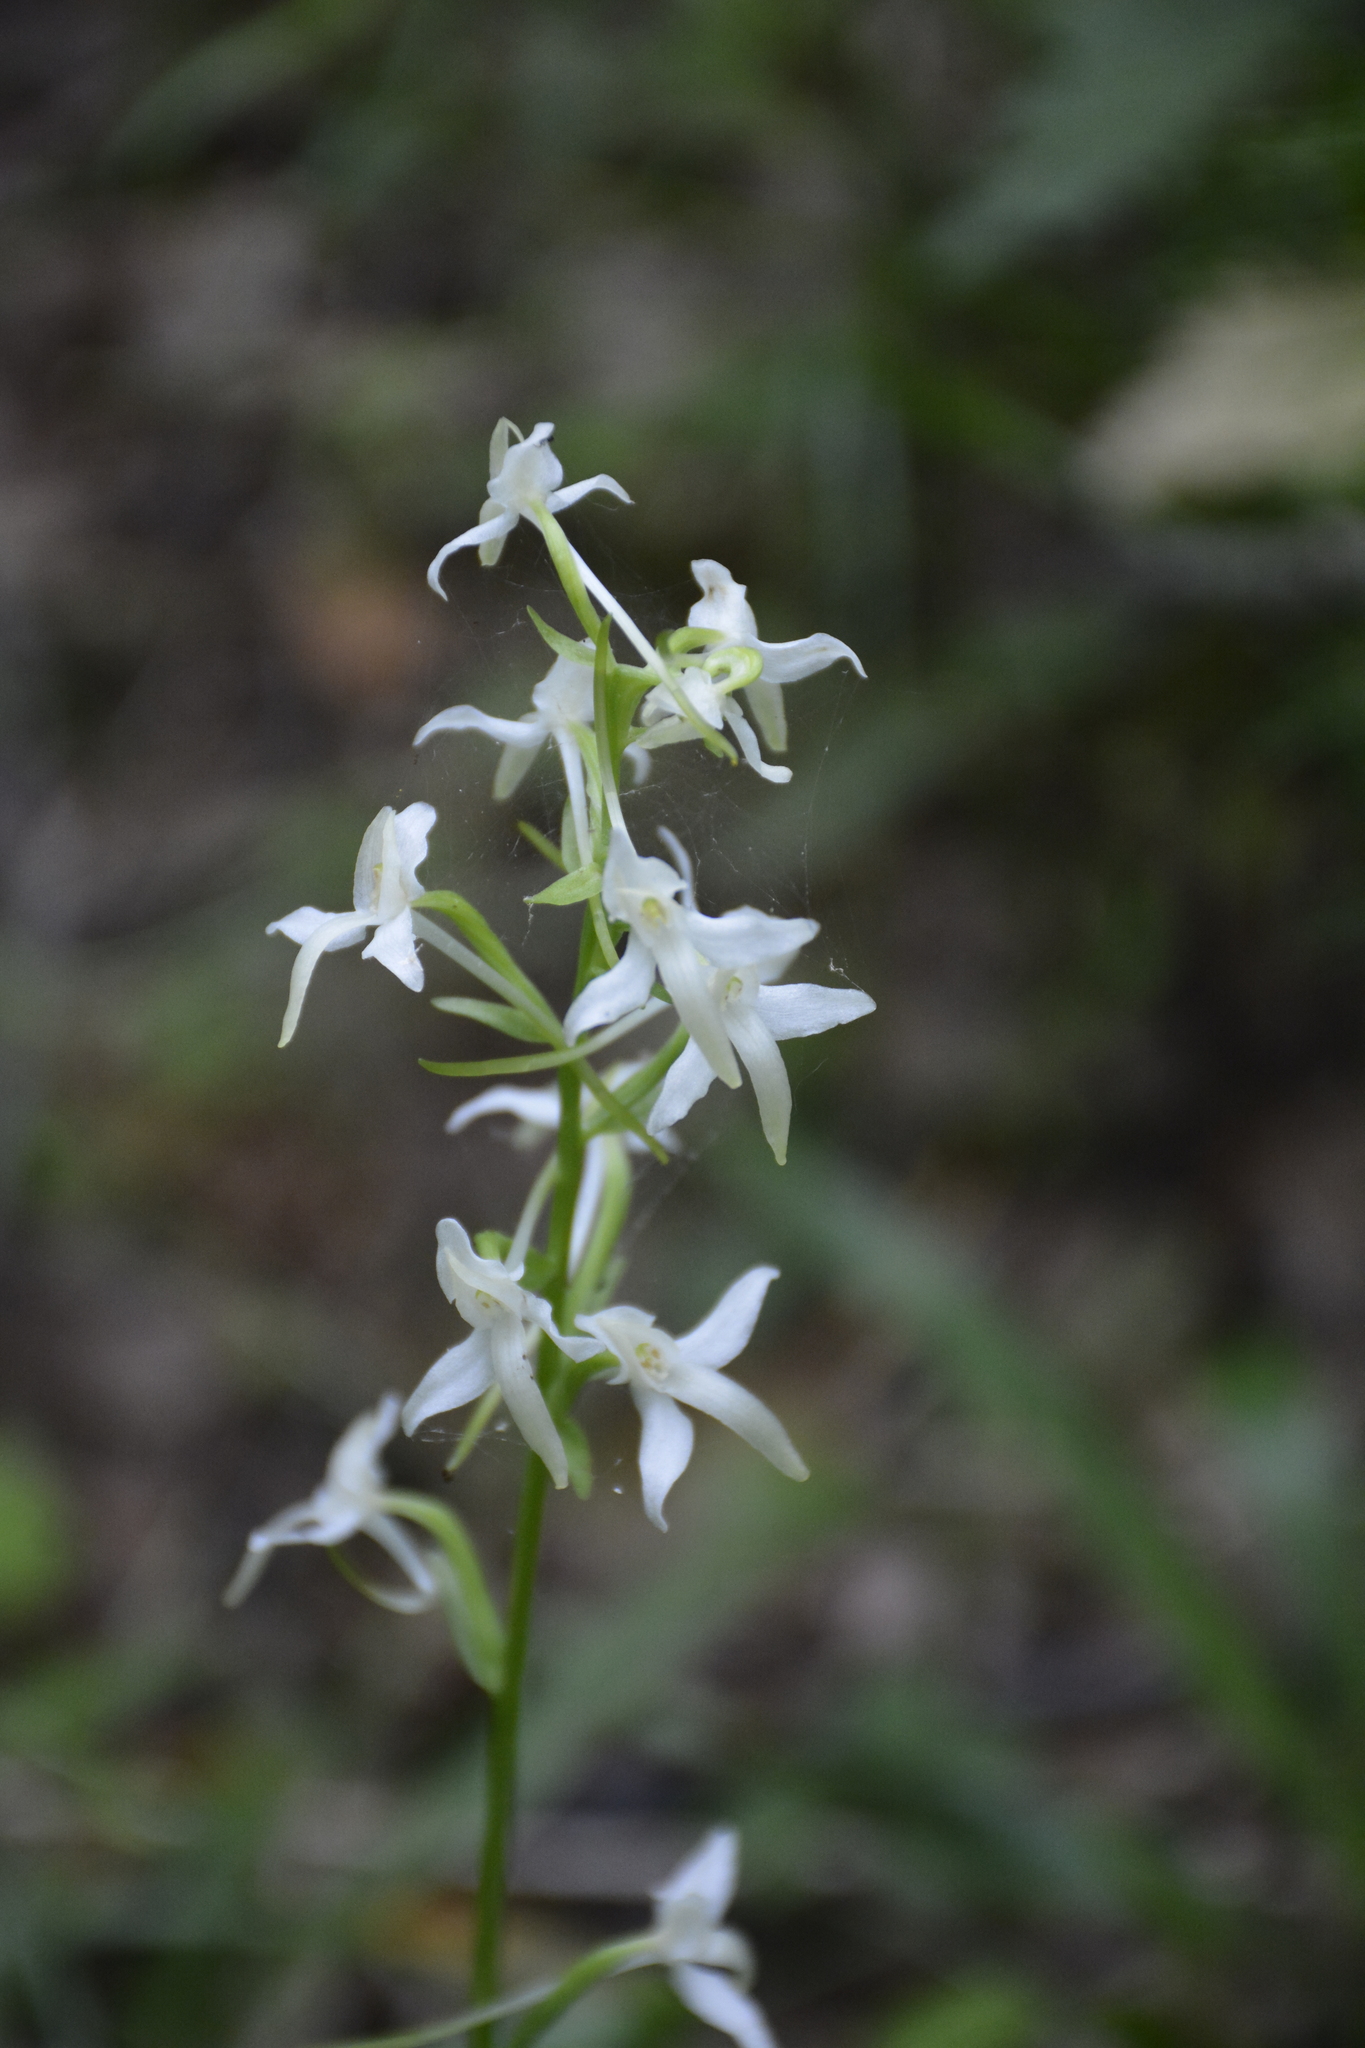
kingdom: Plantae
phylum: Tracheophyta
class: Liliopsida
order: Asparagales
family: Orchidaceae
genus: Platanthera
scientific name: Platanthera bifolia
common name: Lesser butterfly-orchid
